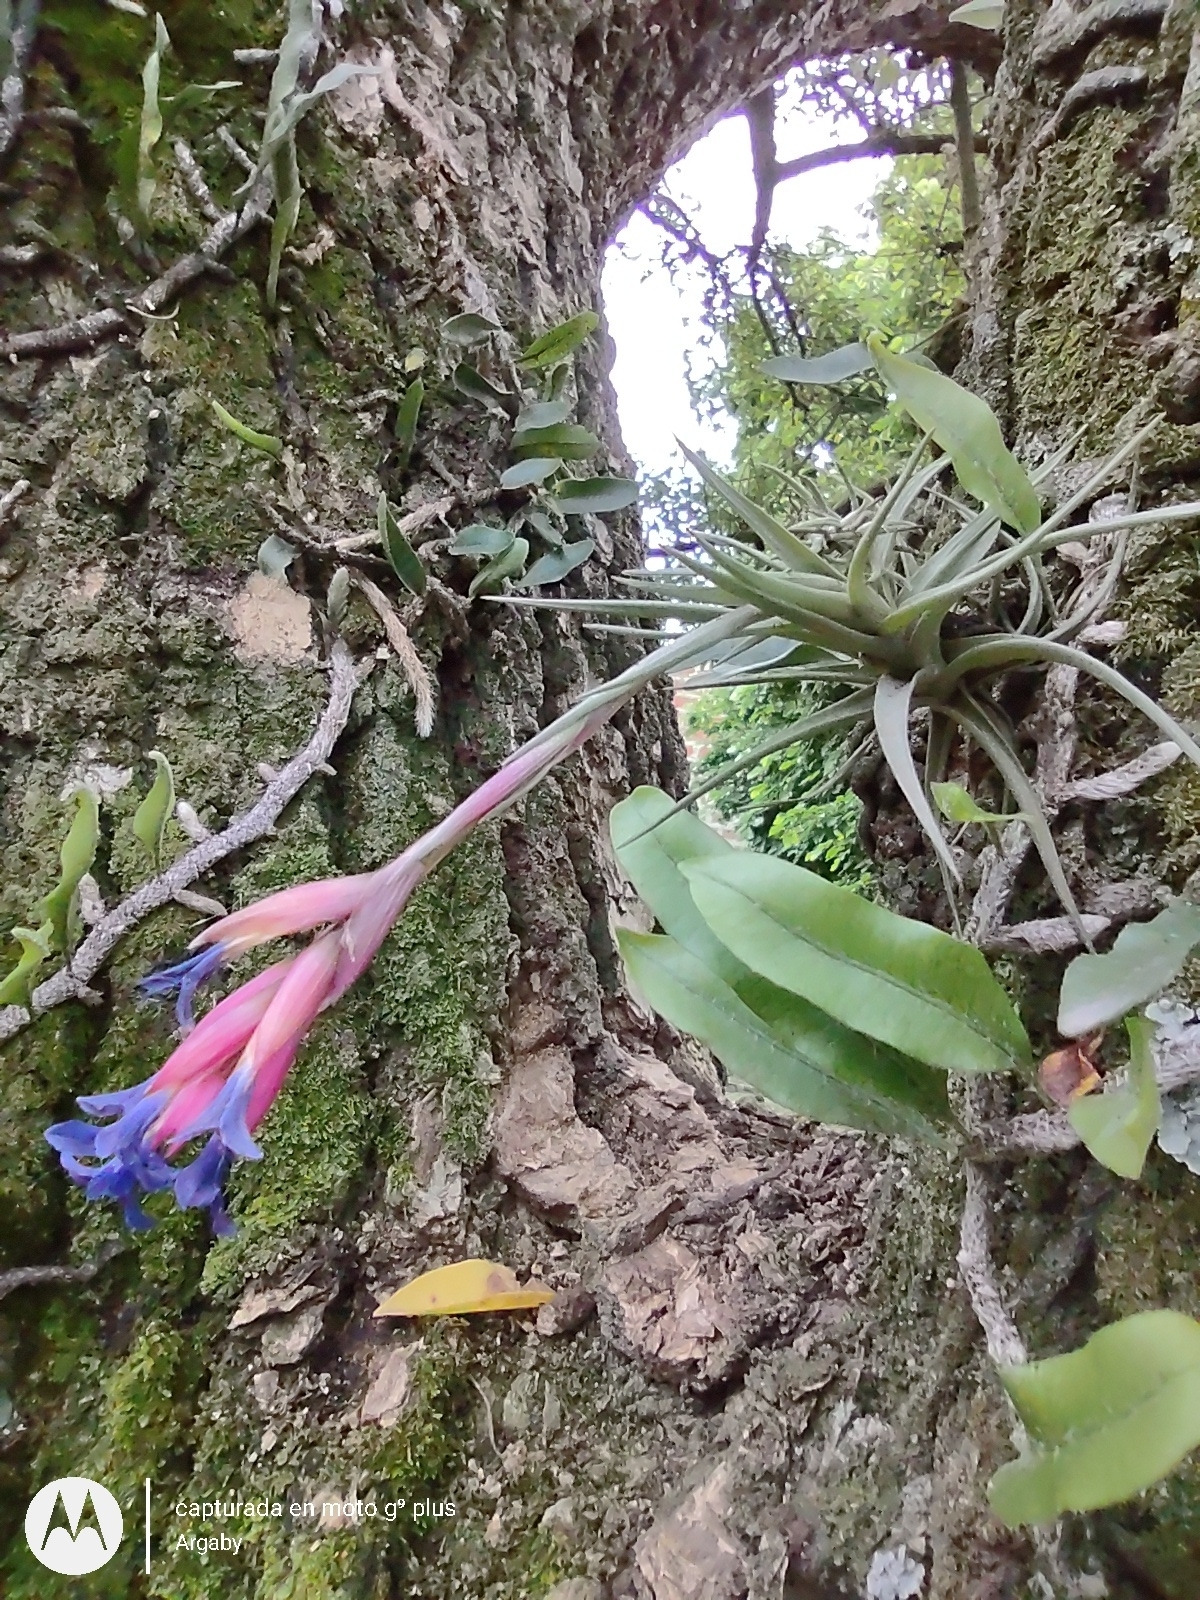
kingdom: Plantae
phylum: Tracheophyta
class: Liliopsida
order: Poales
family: Bromeliaceae
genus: Tillandsia
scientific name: Tillandsia aeranthos
